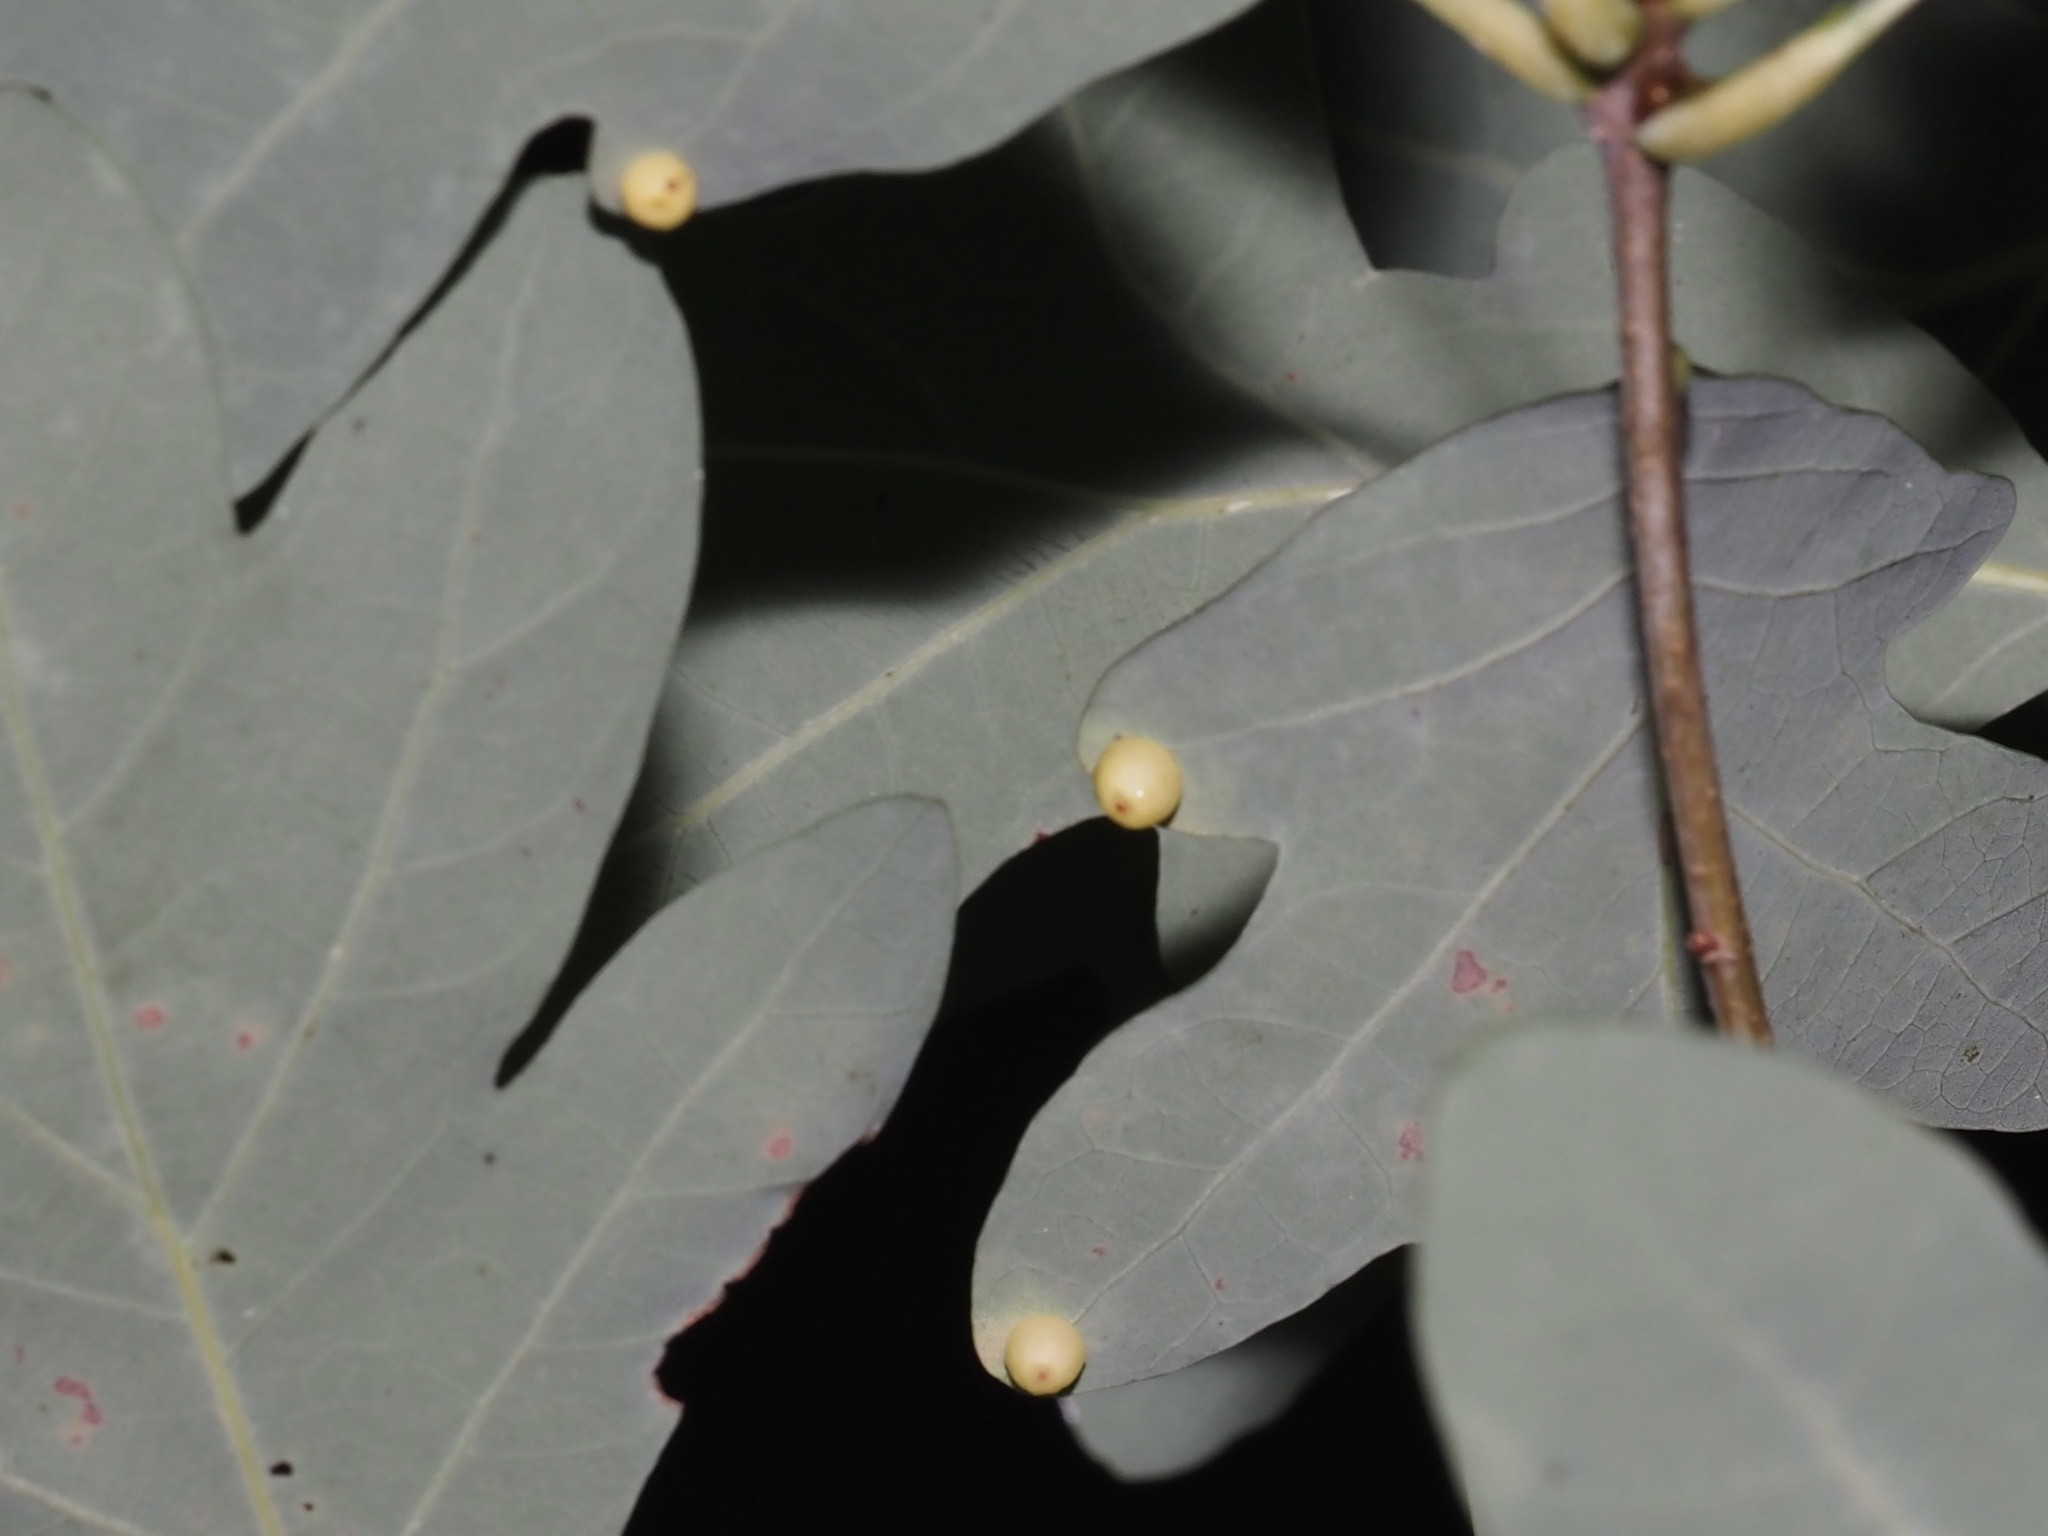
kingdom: Animalia
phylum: Arthropoda
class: Insecta
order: Hymenoptera
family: Cynipidae
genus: Andricus
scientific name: Andricus
